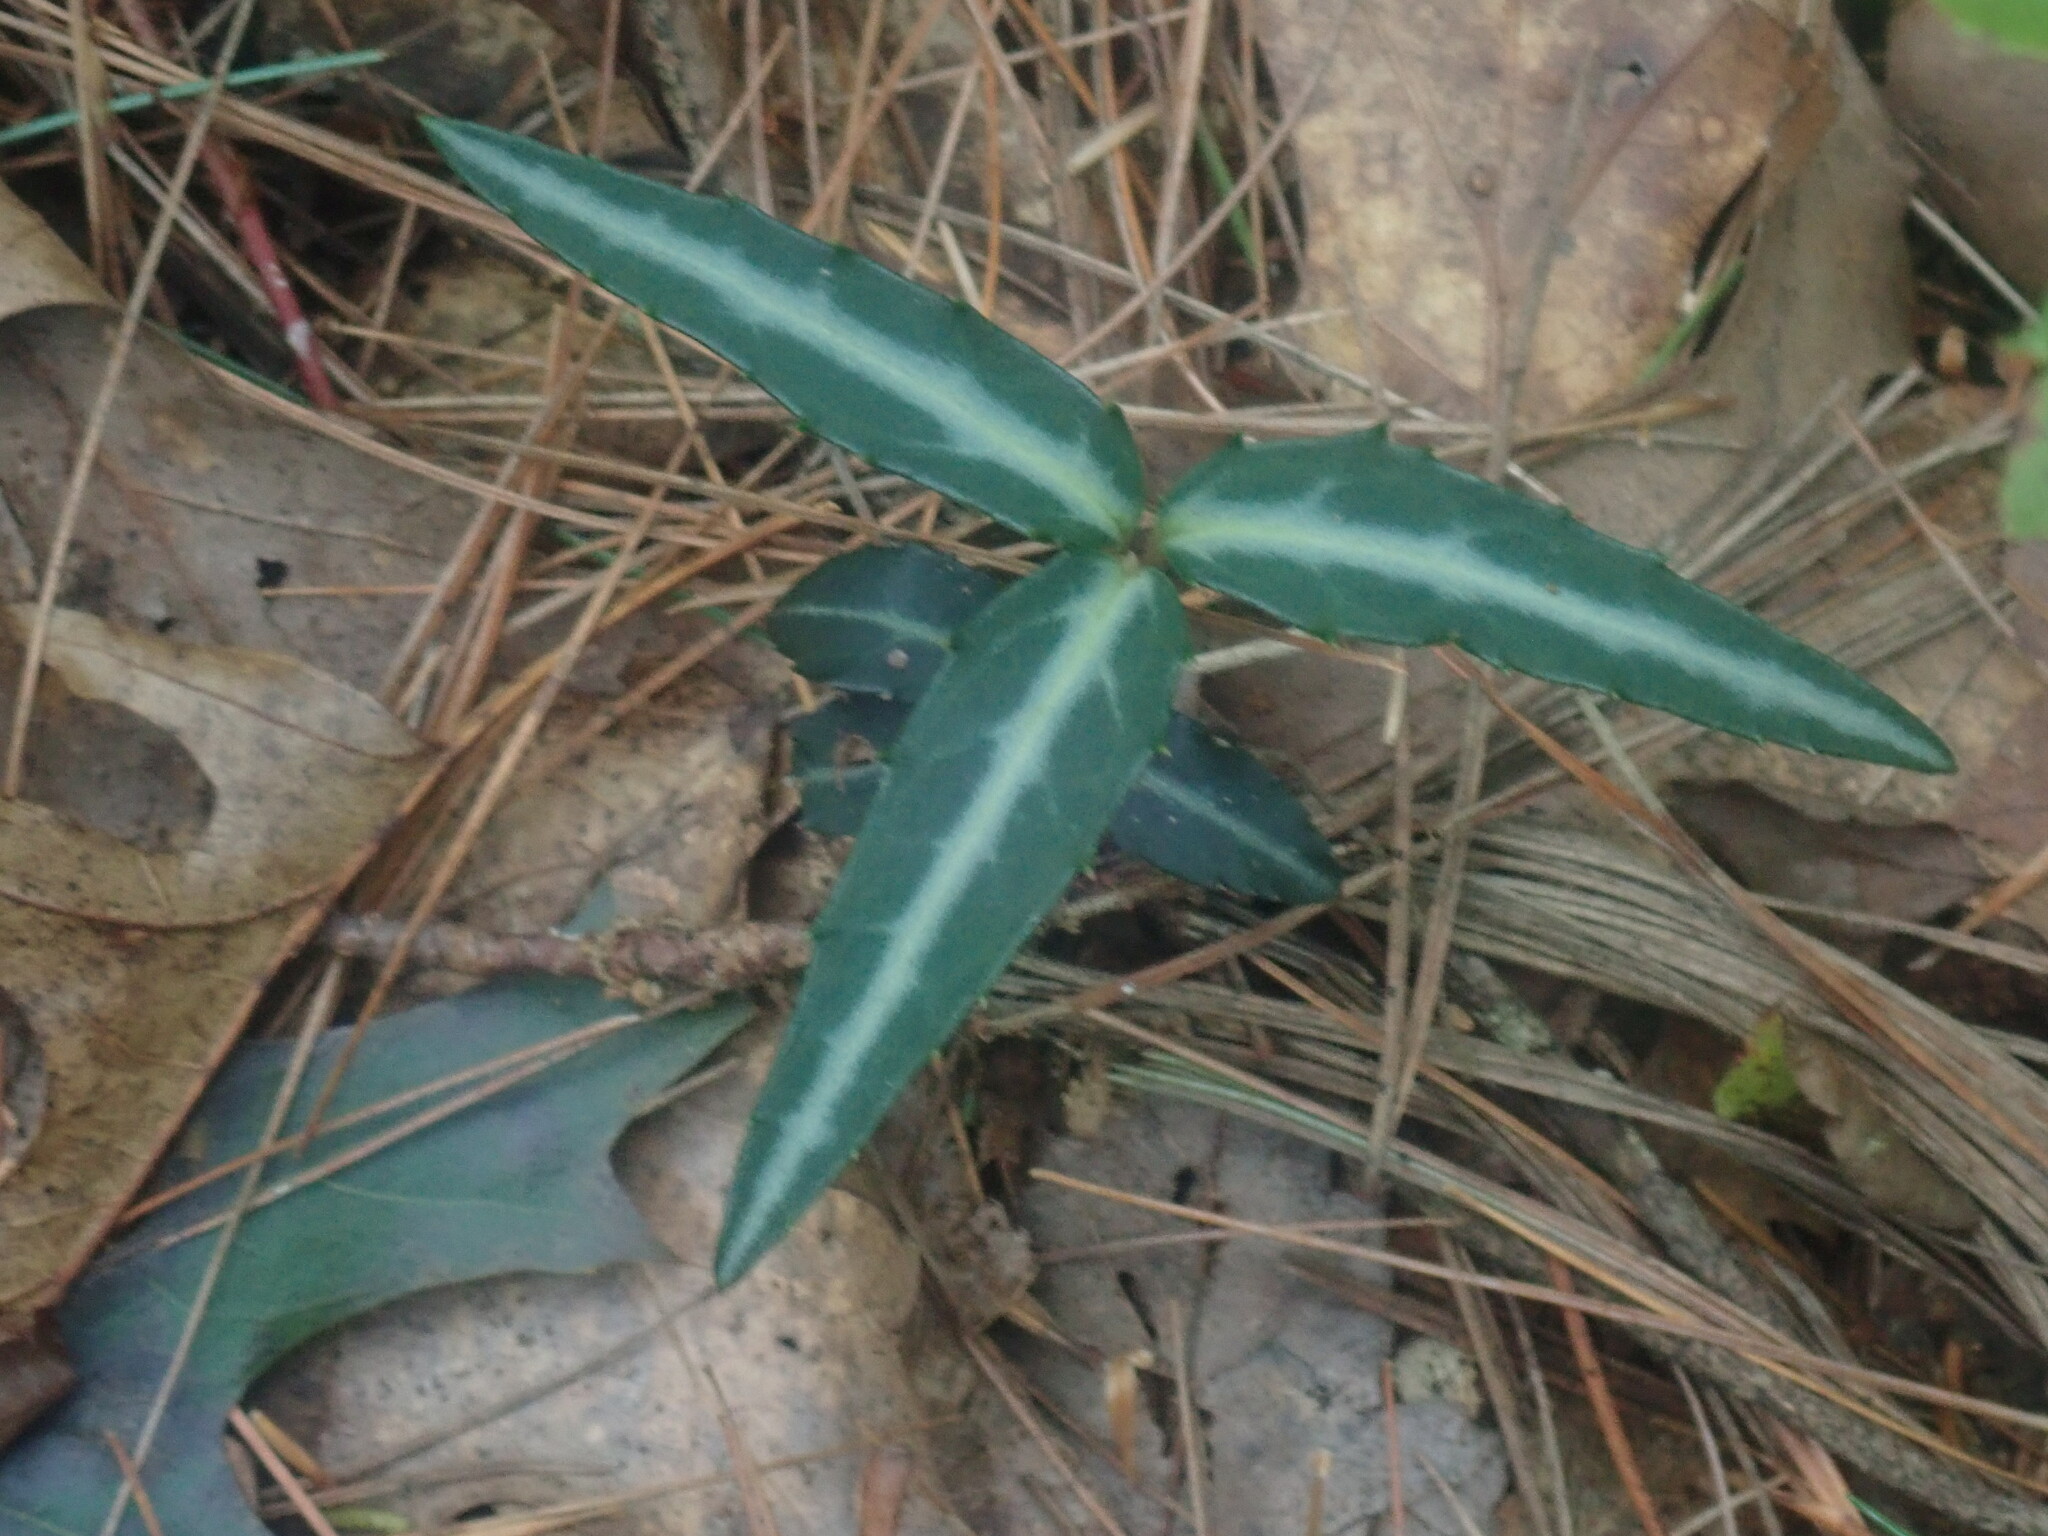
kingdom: Plantae
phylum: Tracheophyta
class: Magnoliopsida
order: Ericales
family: Ericaceae
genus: Chimaphila
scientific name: Chimaphila maculata
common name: Spotted pipsissewa
